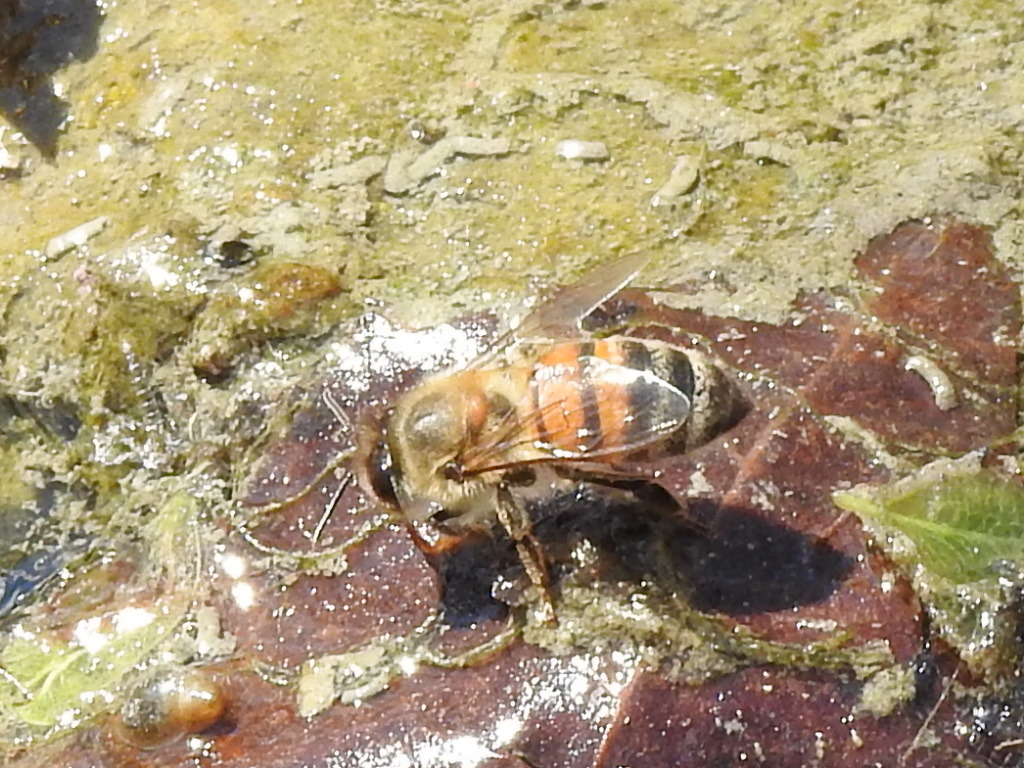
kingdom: Animalia
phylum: Arthropoda
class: Insecta
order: Hymenoptera
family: Apidae
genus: Apis
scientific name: Apis mellifera
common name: Honey bee
